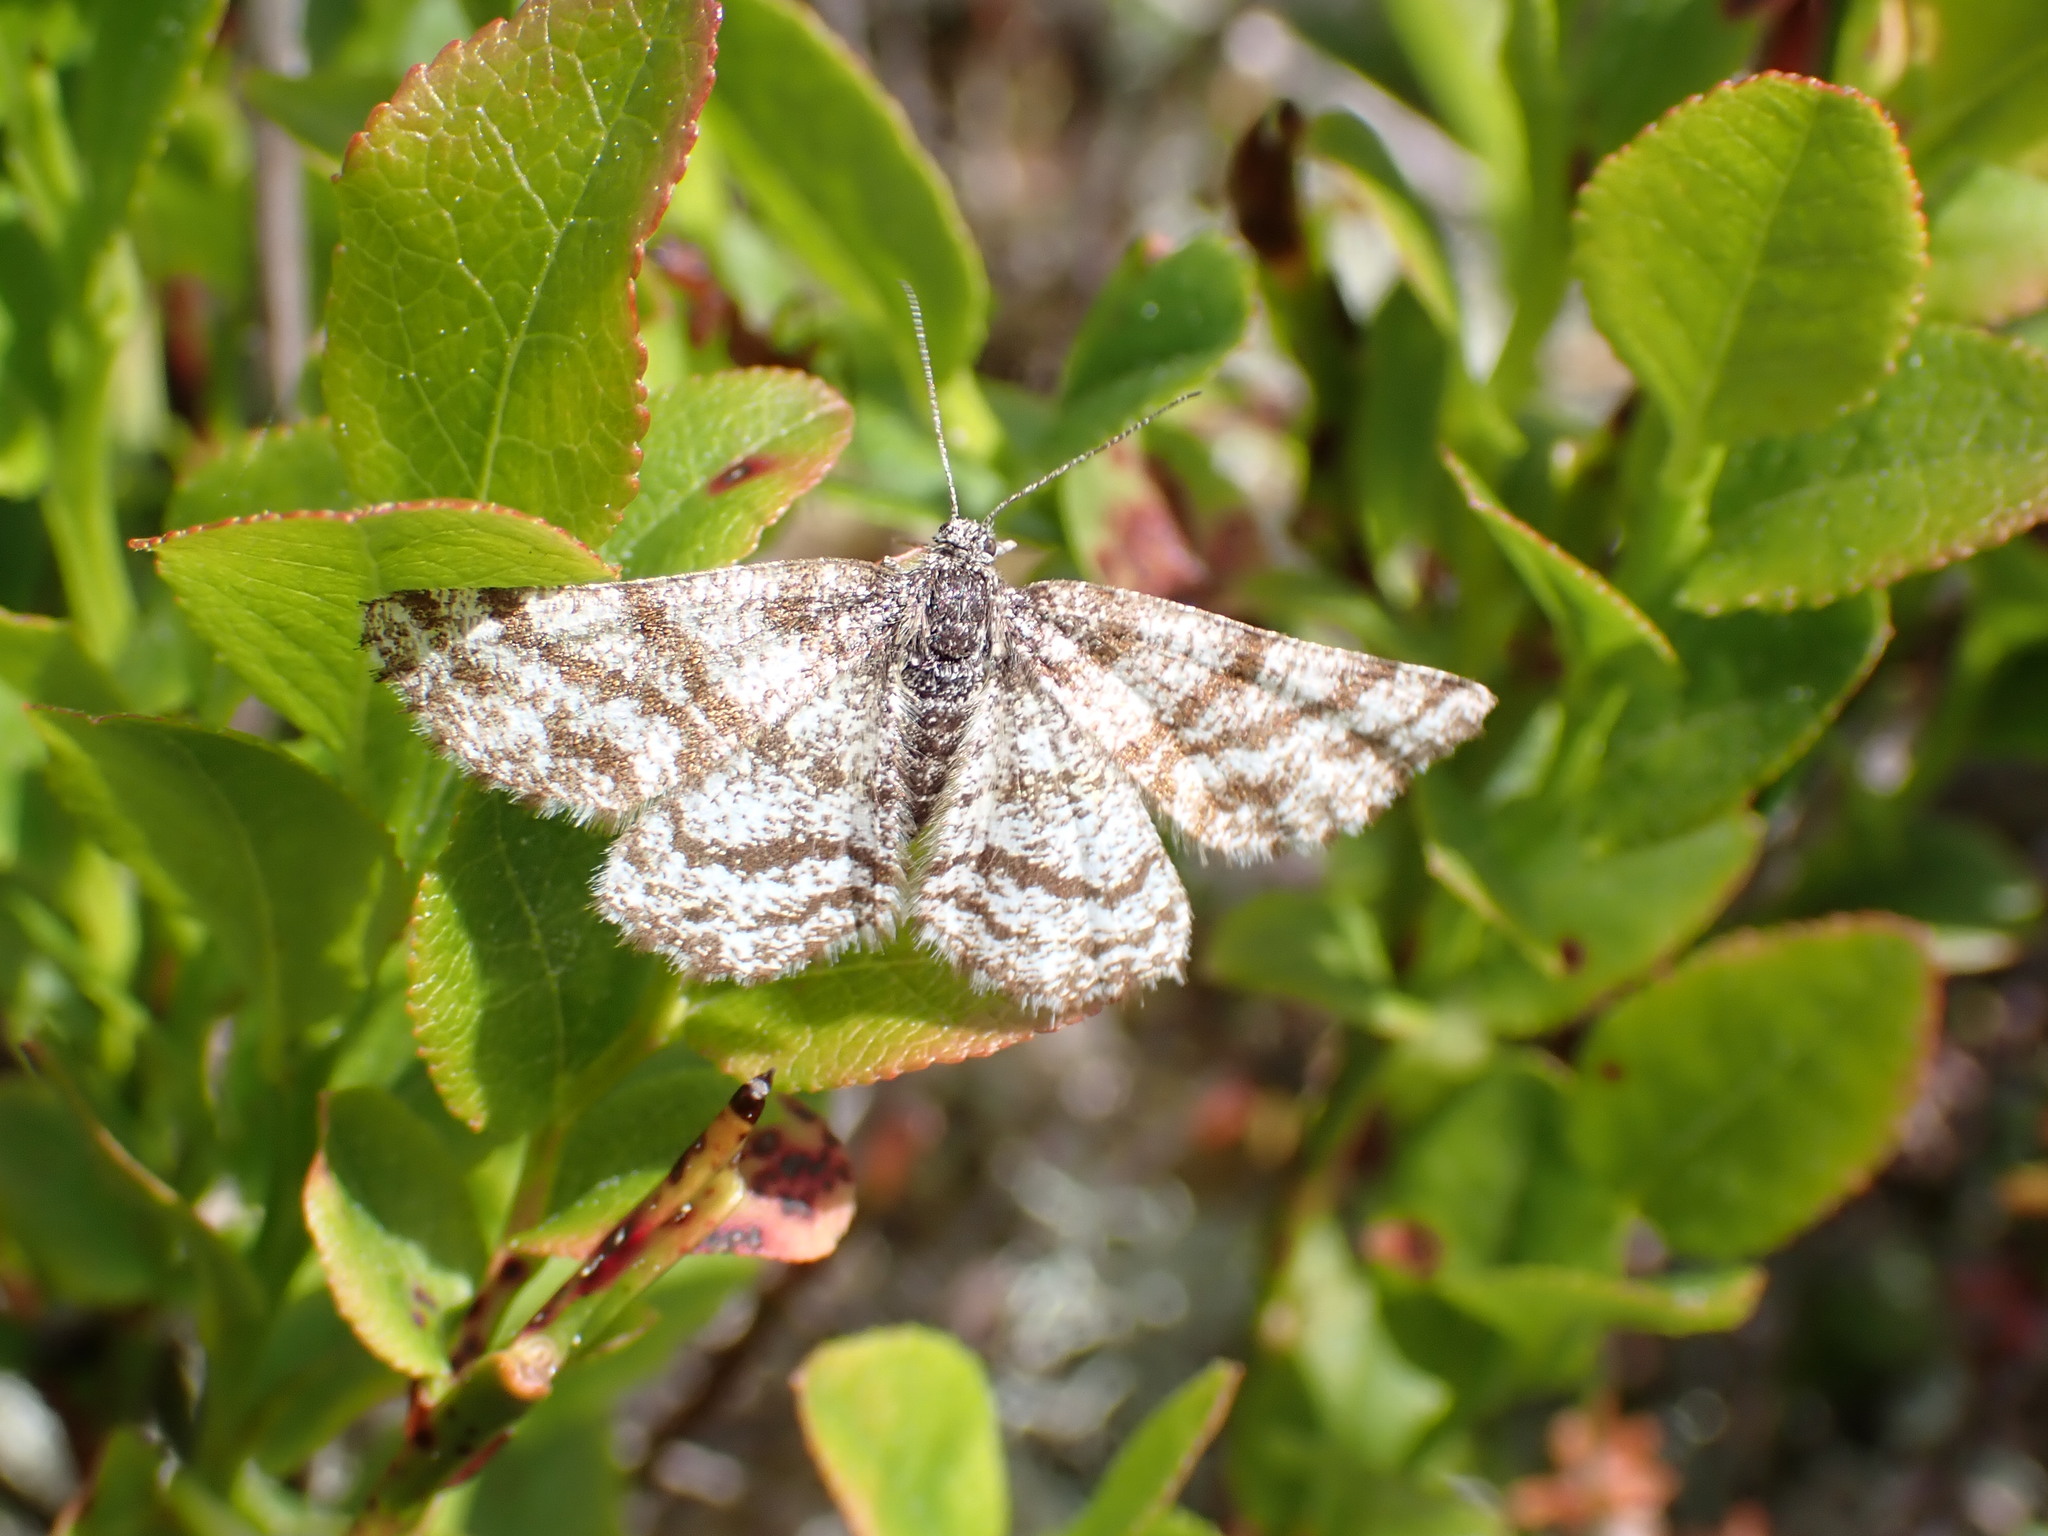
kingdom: Animalia
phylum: Arthropoda
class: Insecta
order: Lepidoptera
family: Geometridae
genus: Ematurga
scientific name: Ematurga atomaria
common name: Common heath
